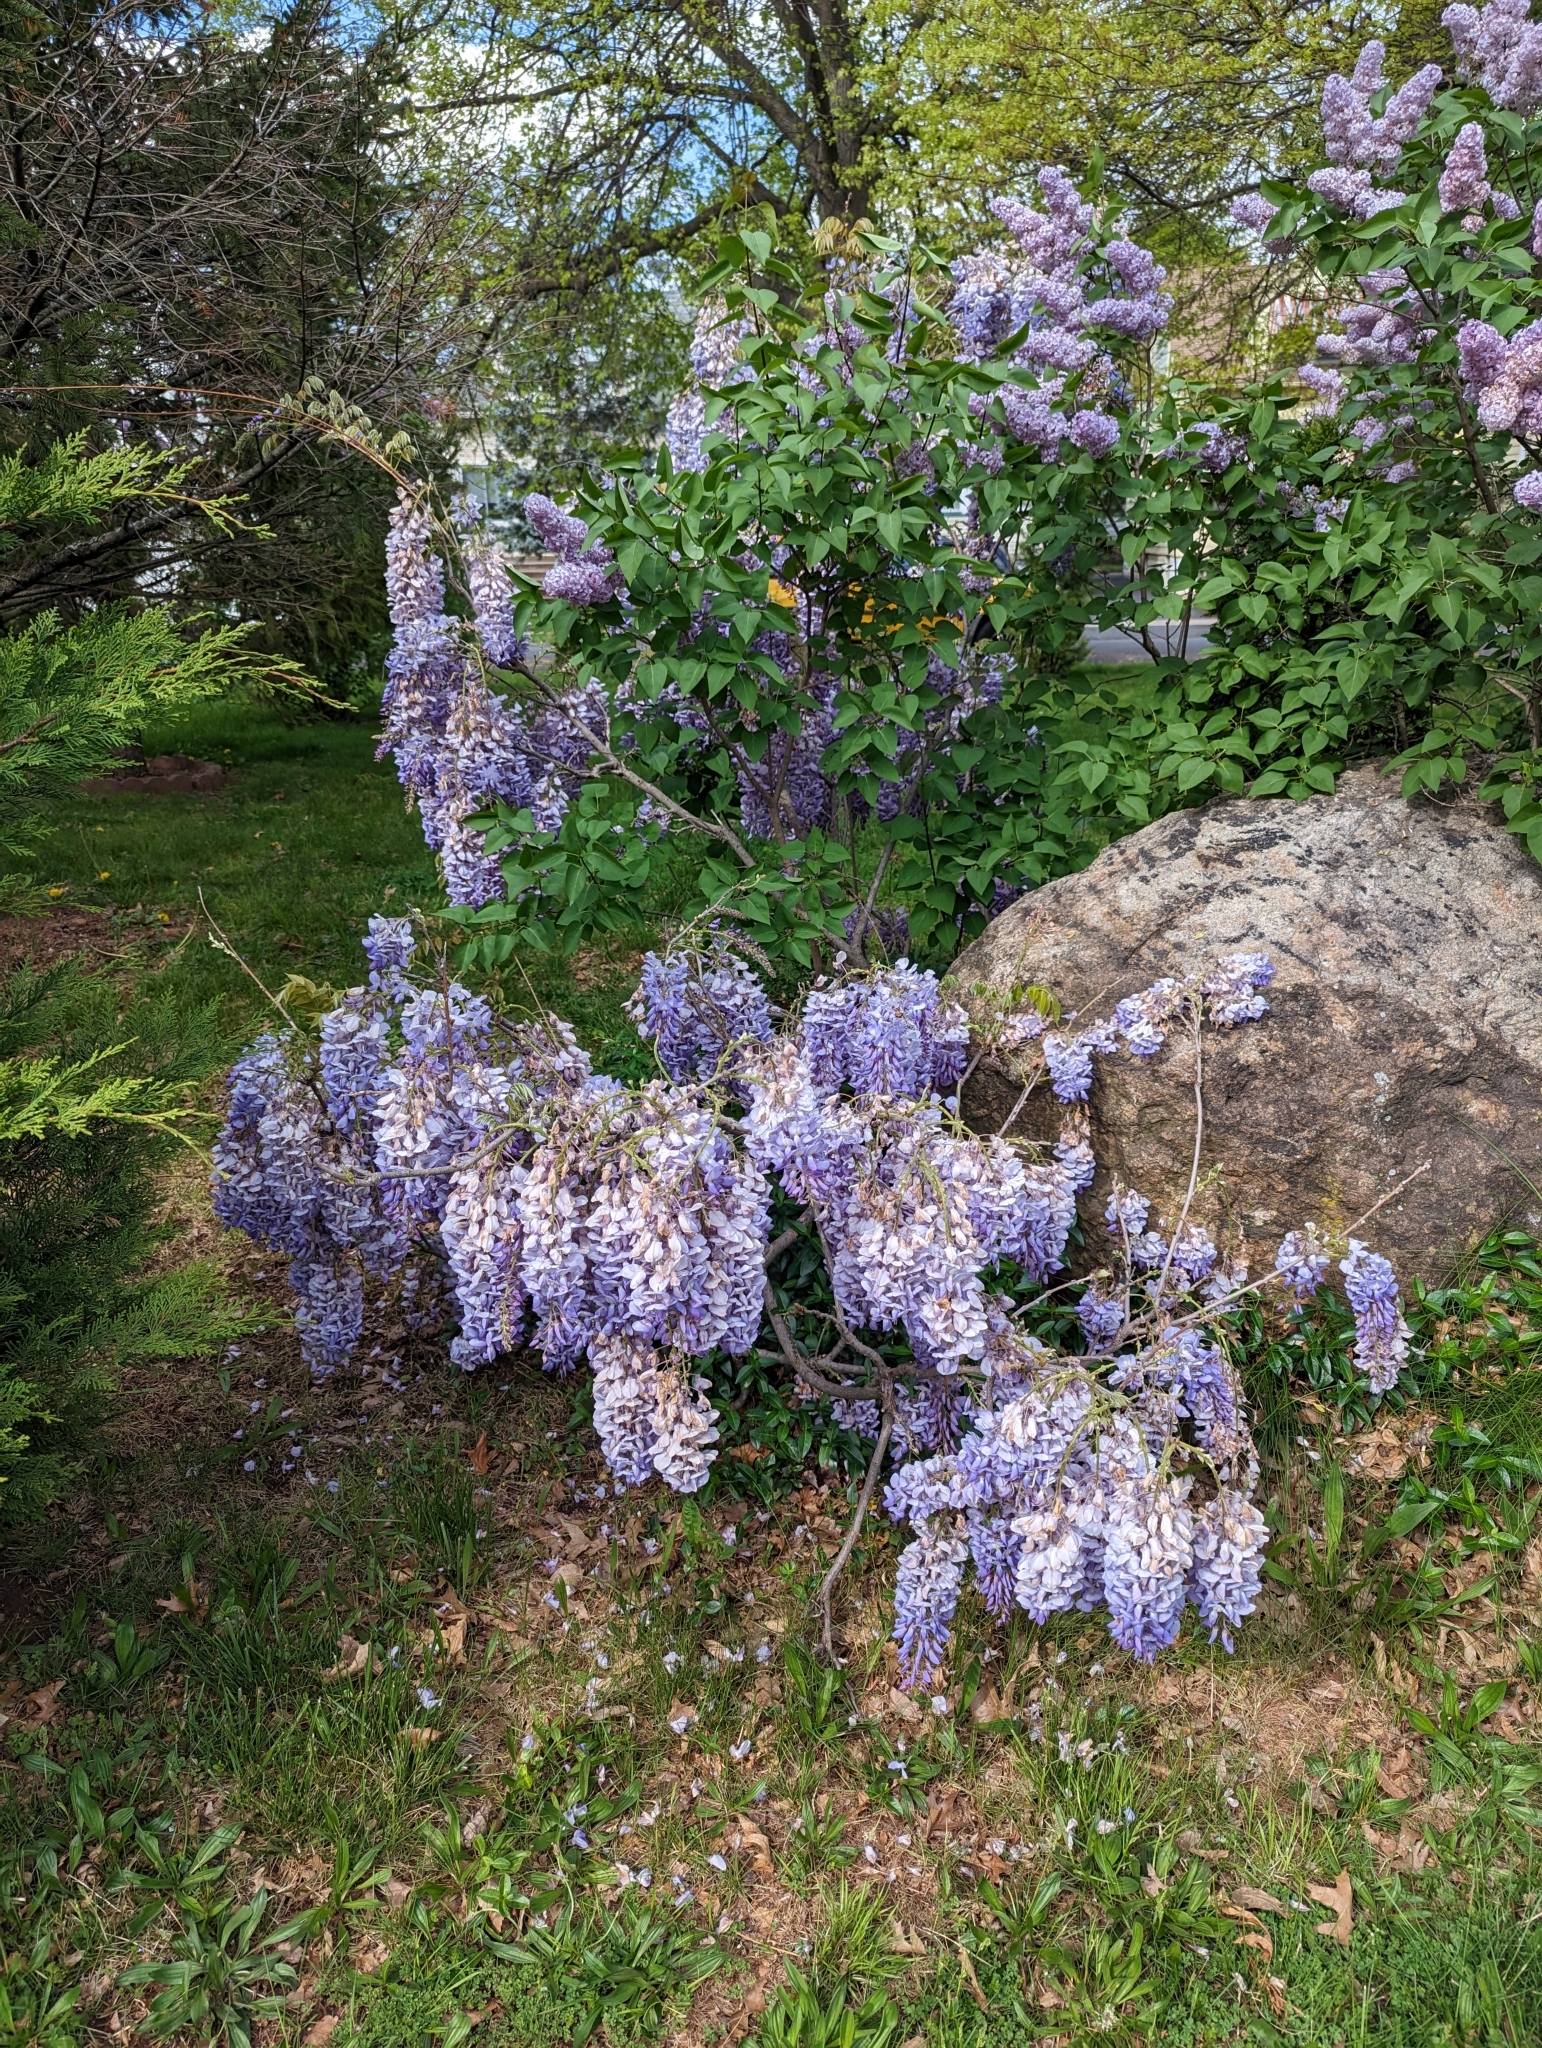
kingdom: Plantae
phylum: Tracheophyta
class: Magnoliopsida
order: Fabales
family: Fabaceae
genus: Wisteria
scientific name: Wisteria sinensis
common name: Chinese wisteria
